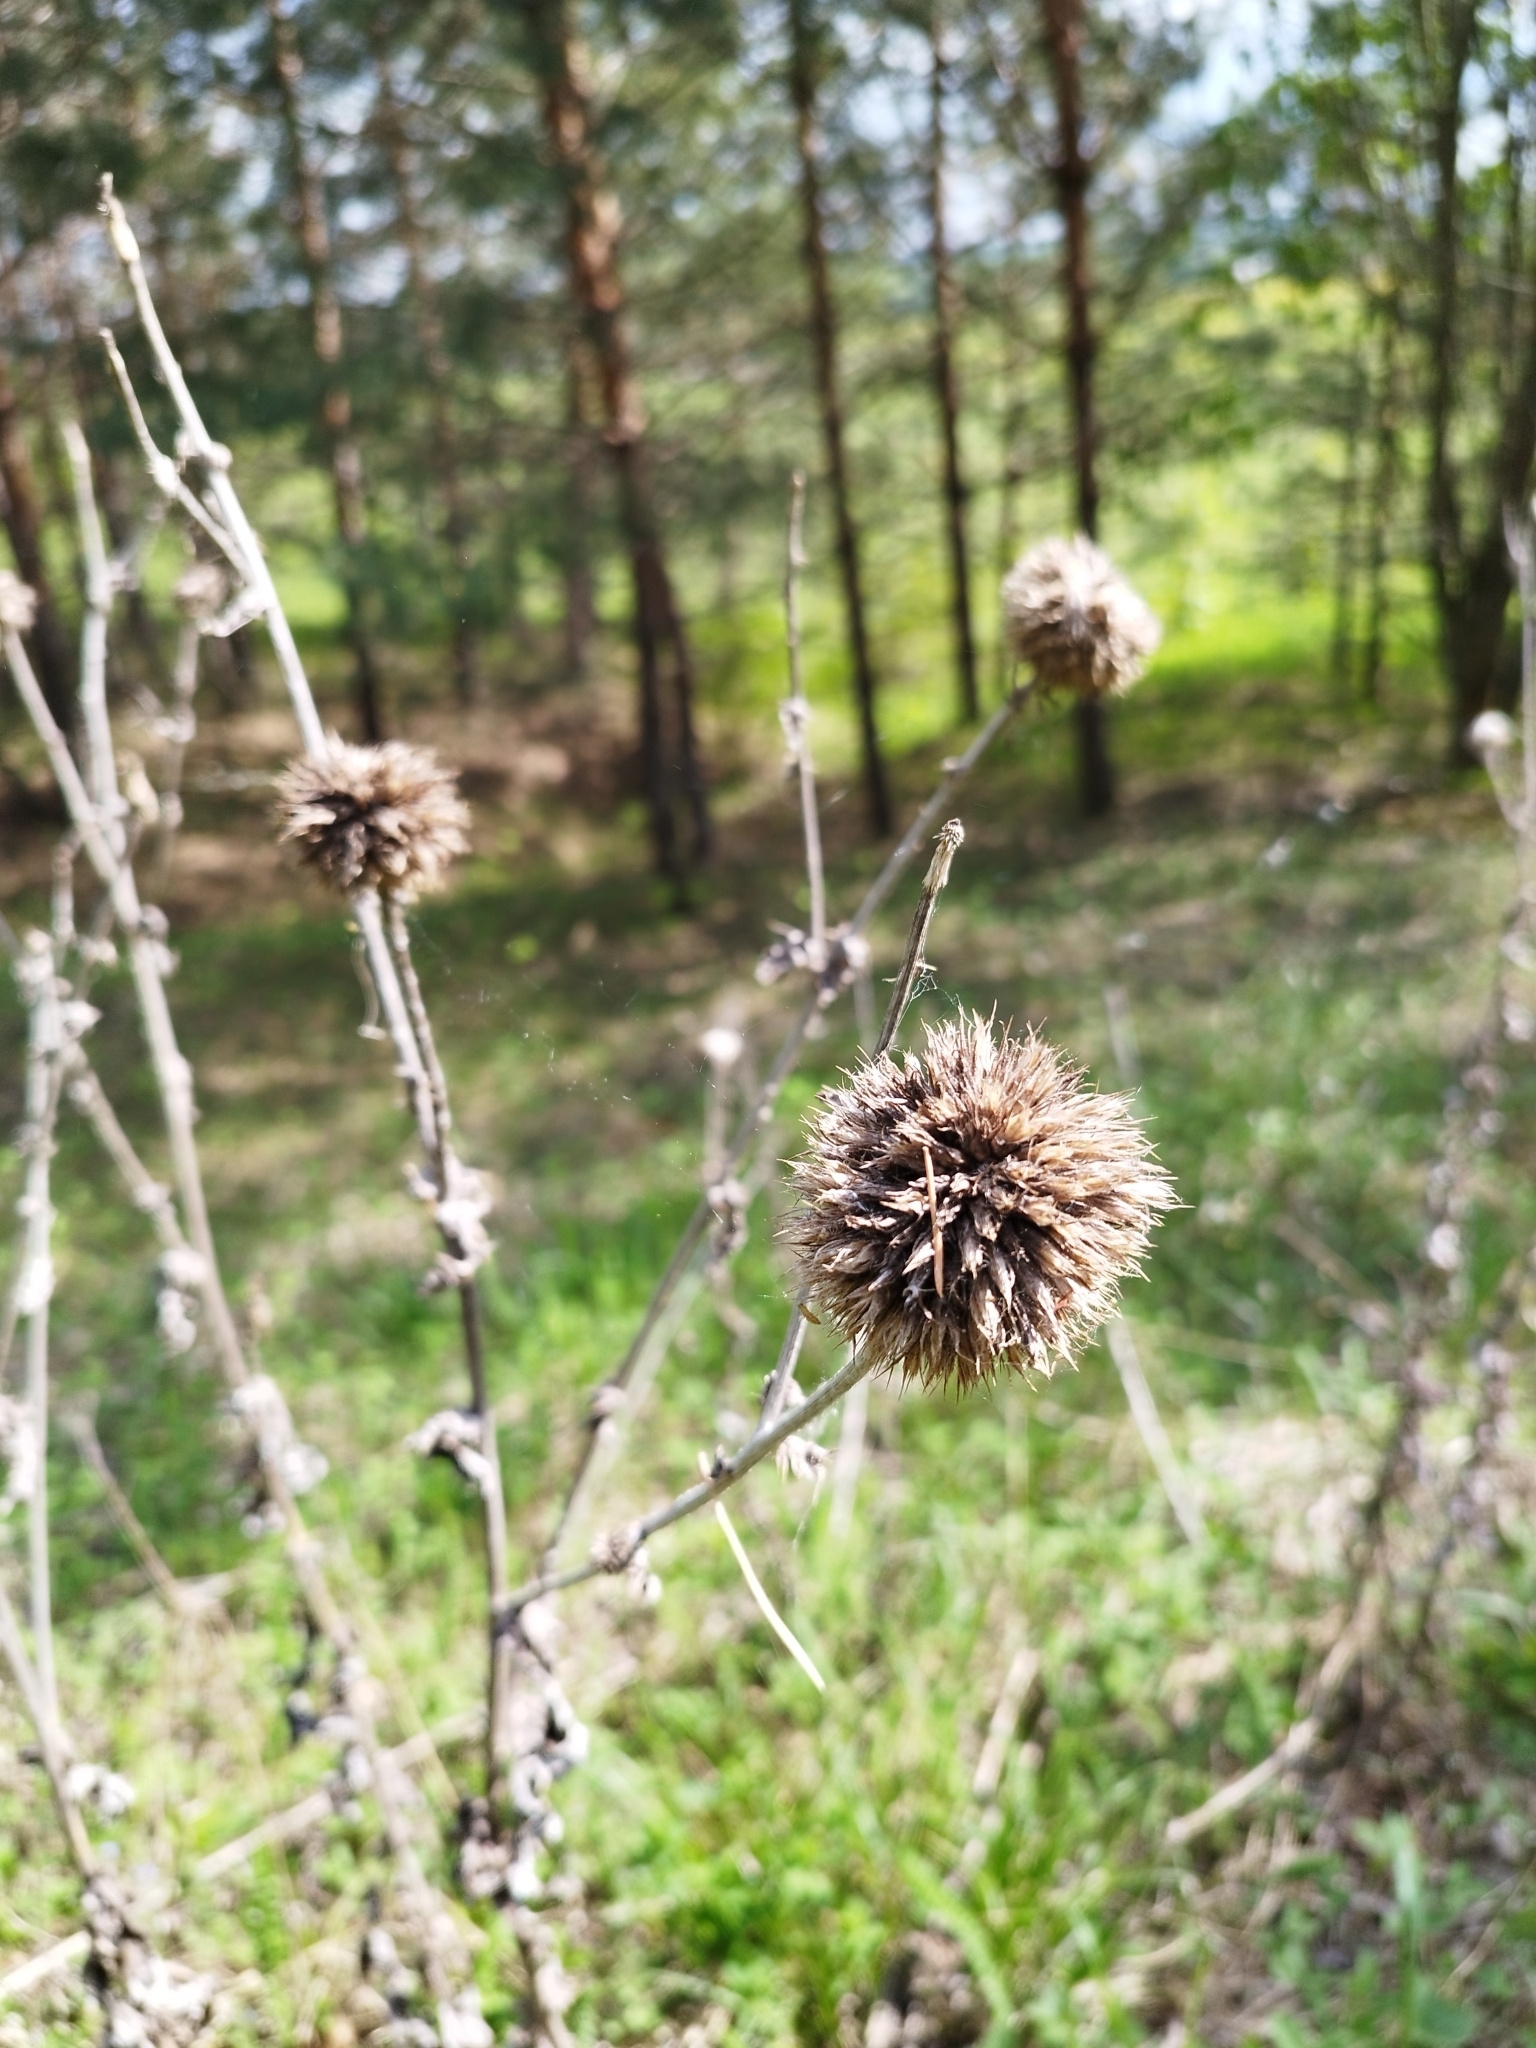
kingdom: Plantae
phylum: Tracheophyta
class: Magnoliopsida
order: Asterales
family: Asteraceae
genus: Echinops
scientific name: Echinops sphaerocephalus
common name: Glandular globe-thistle
